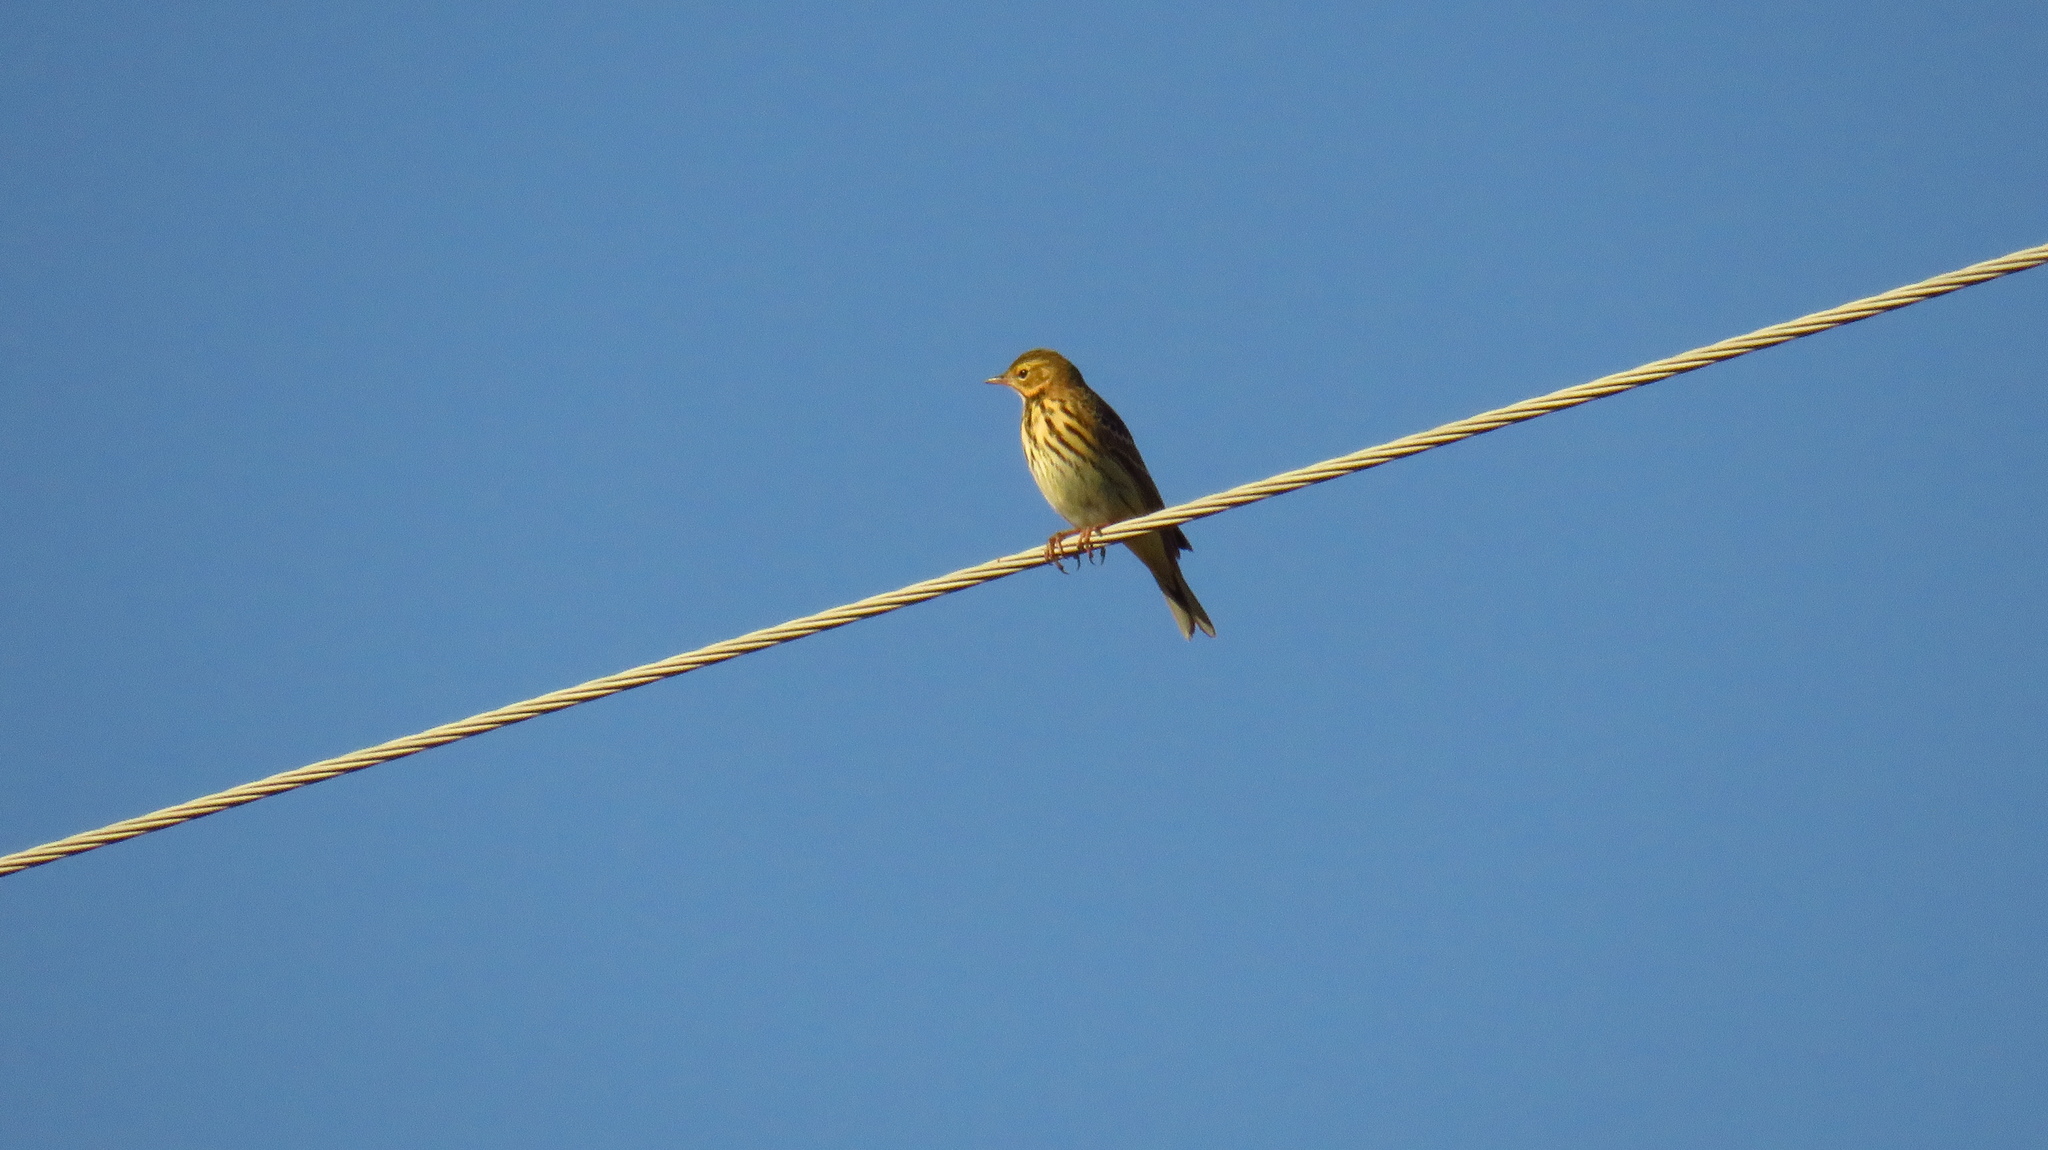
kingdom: Animalia
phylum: Chordata
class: Aves
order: Passeriformes
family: Motacillidae
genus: Anthus
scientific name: Anthus trivialis
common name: Tree pipit
